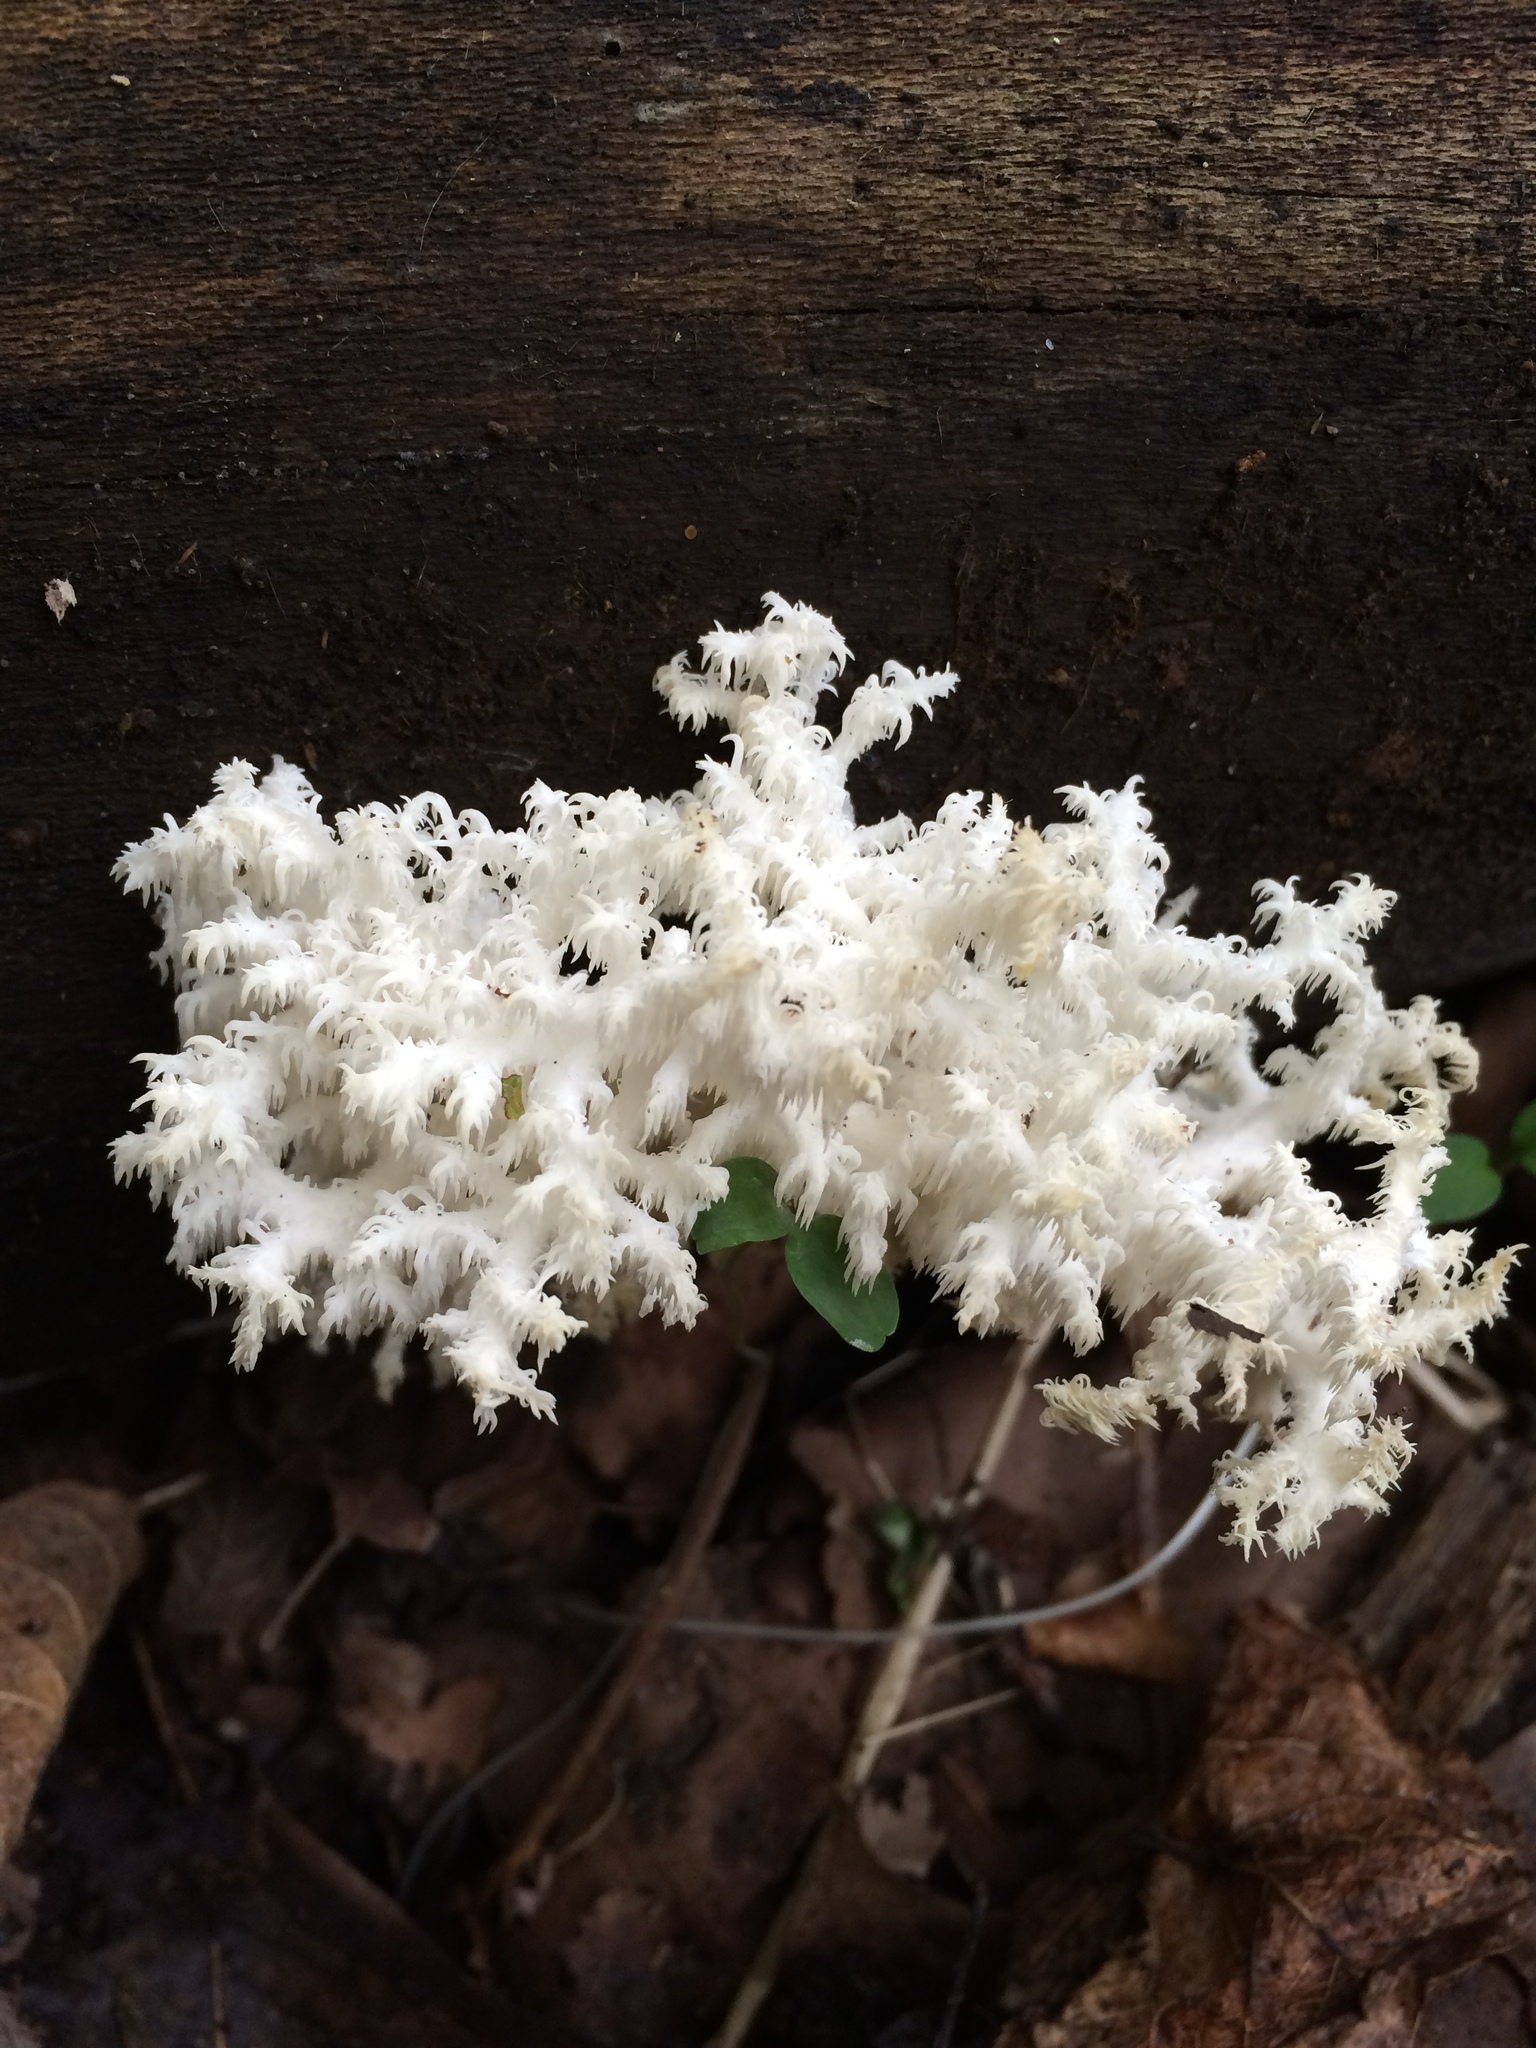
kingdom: Fungi
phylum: Basidiomycota
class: Agaricomycetes
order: Russulales
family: Hericiaceae
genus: Hericium
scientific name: Hericium coralloides
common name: Coral tooth
